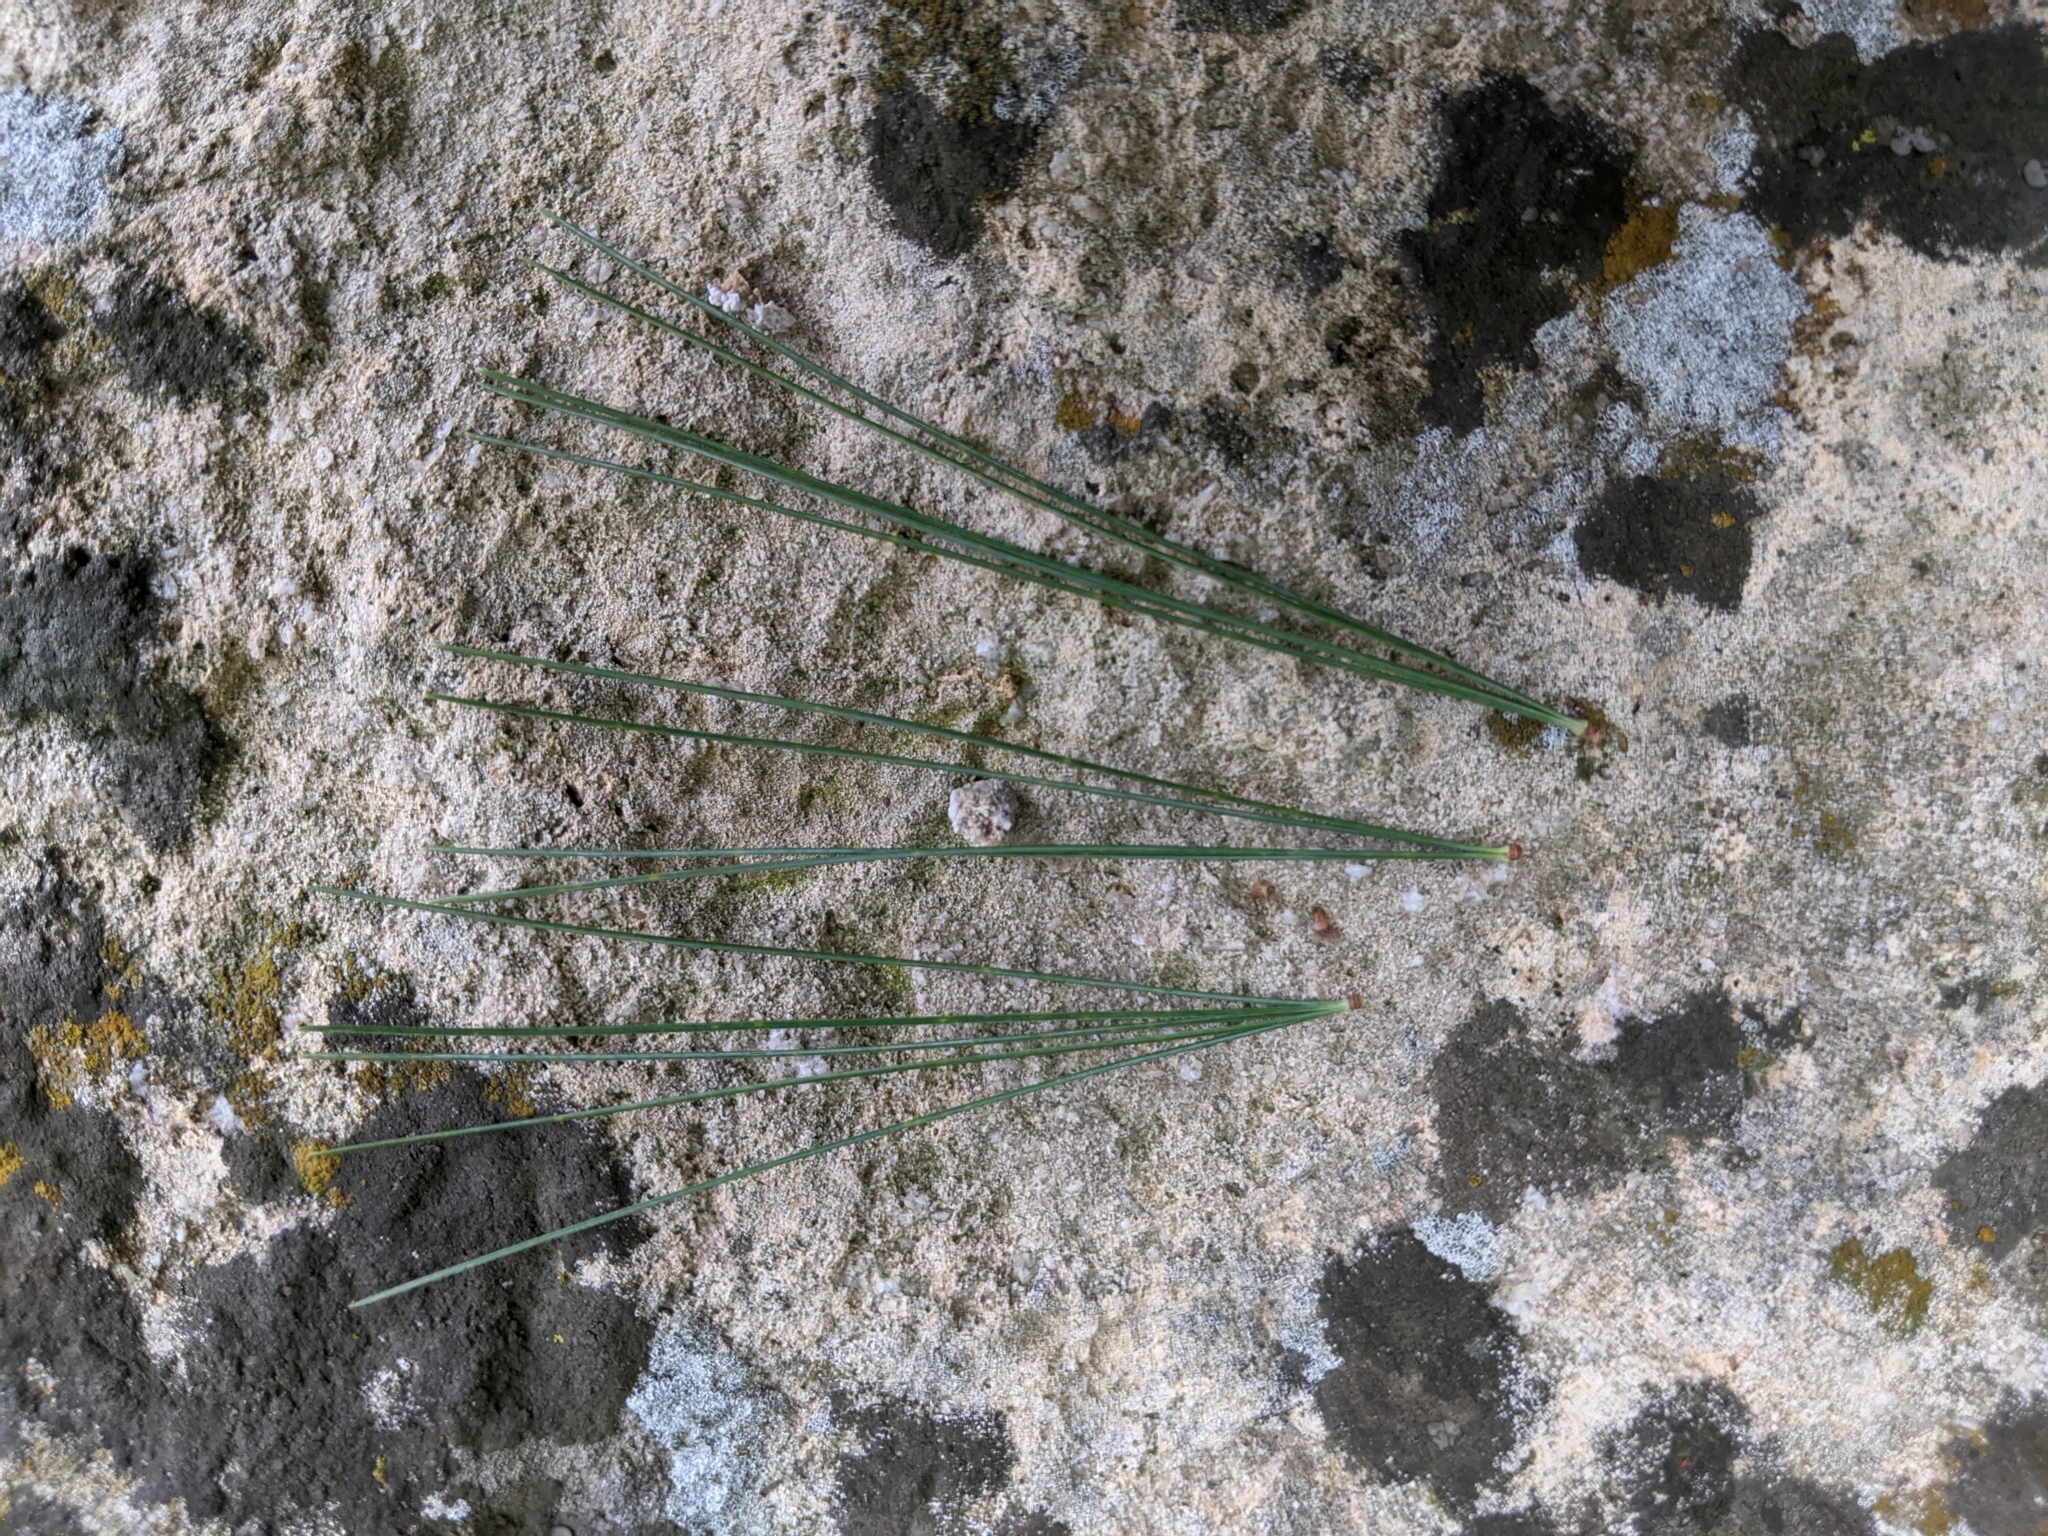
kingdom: Plantae
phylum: Tracheophyta
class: Pinopsida
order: Pinales
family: Pinaceae
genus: Pinus
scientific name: Pinus strobus
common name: Weymouth pine
